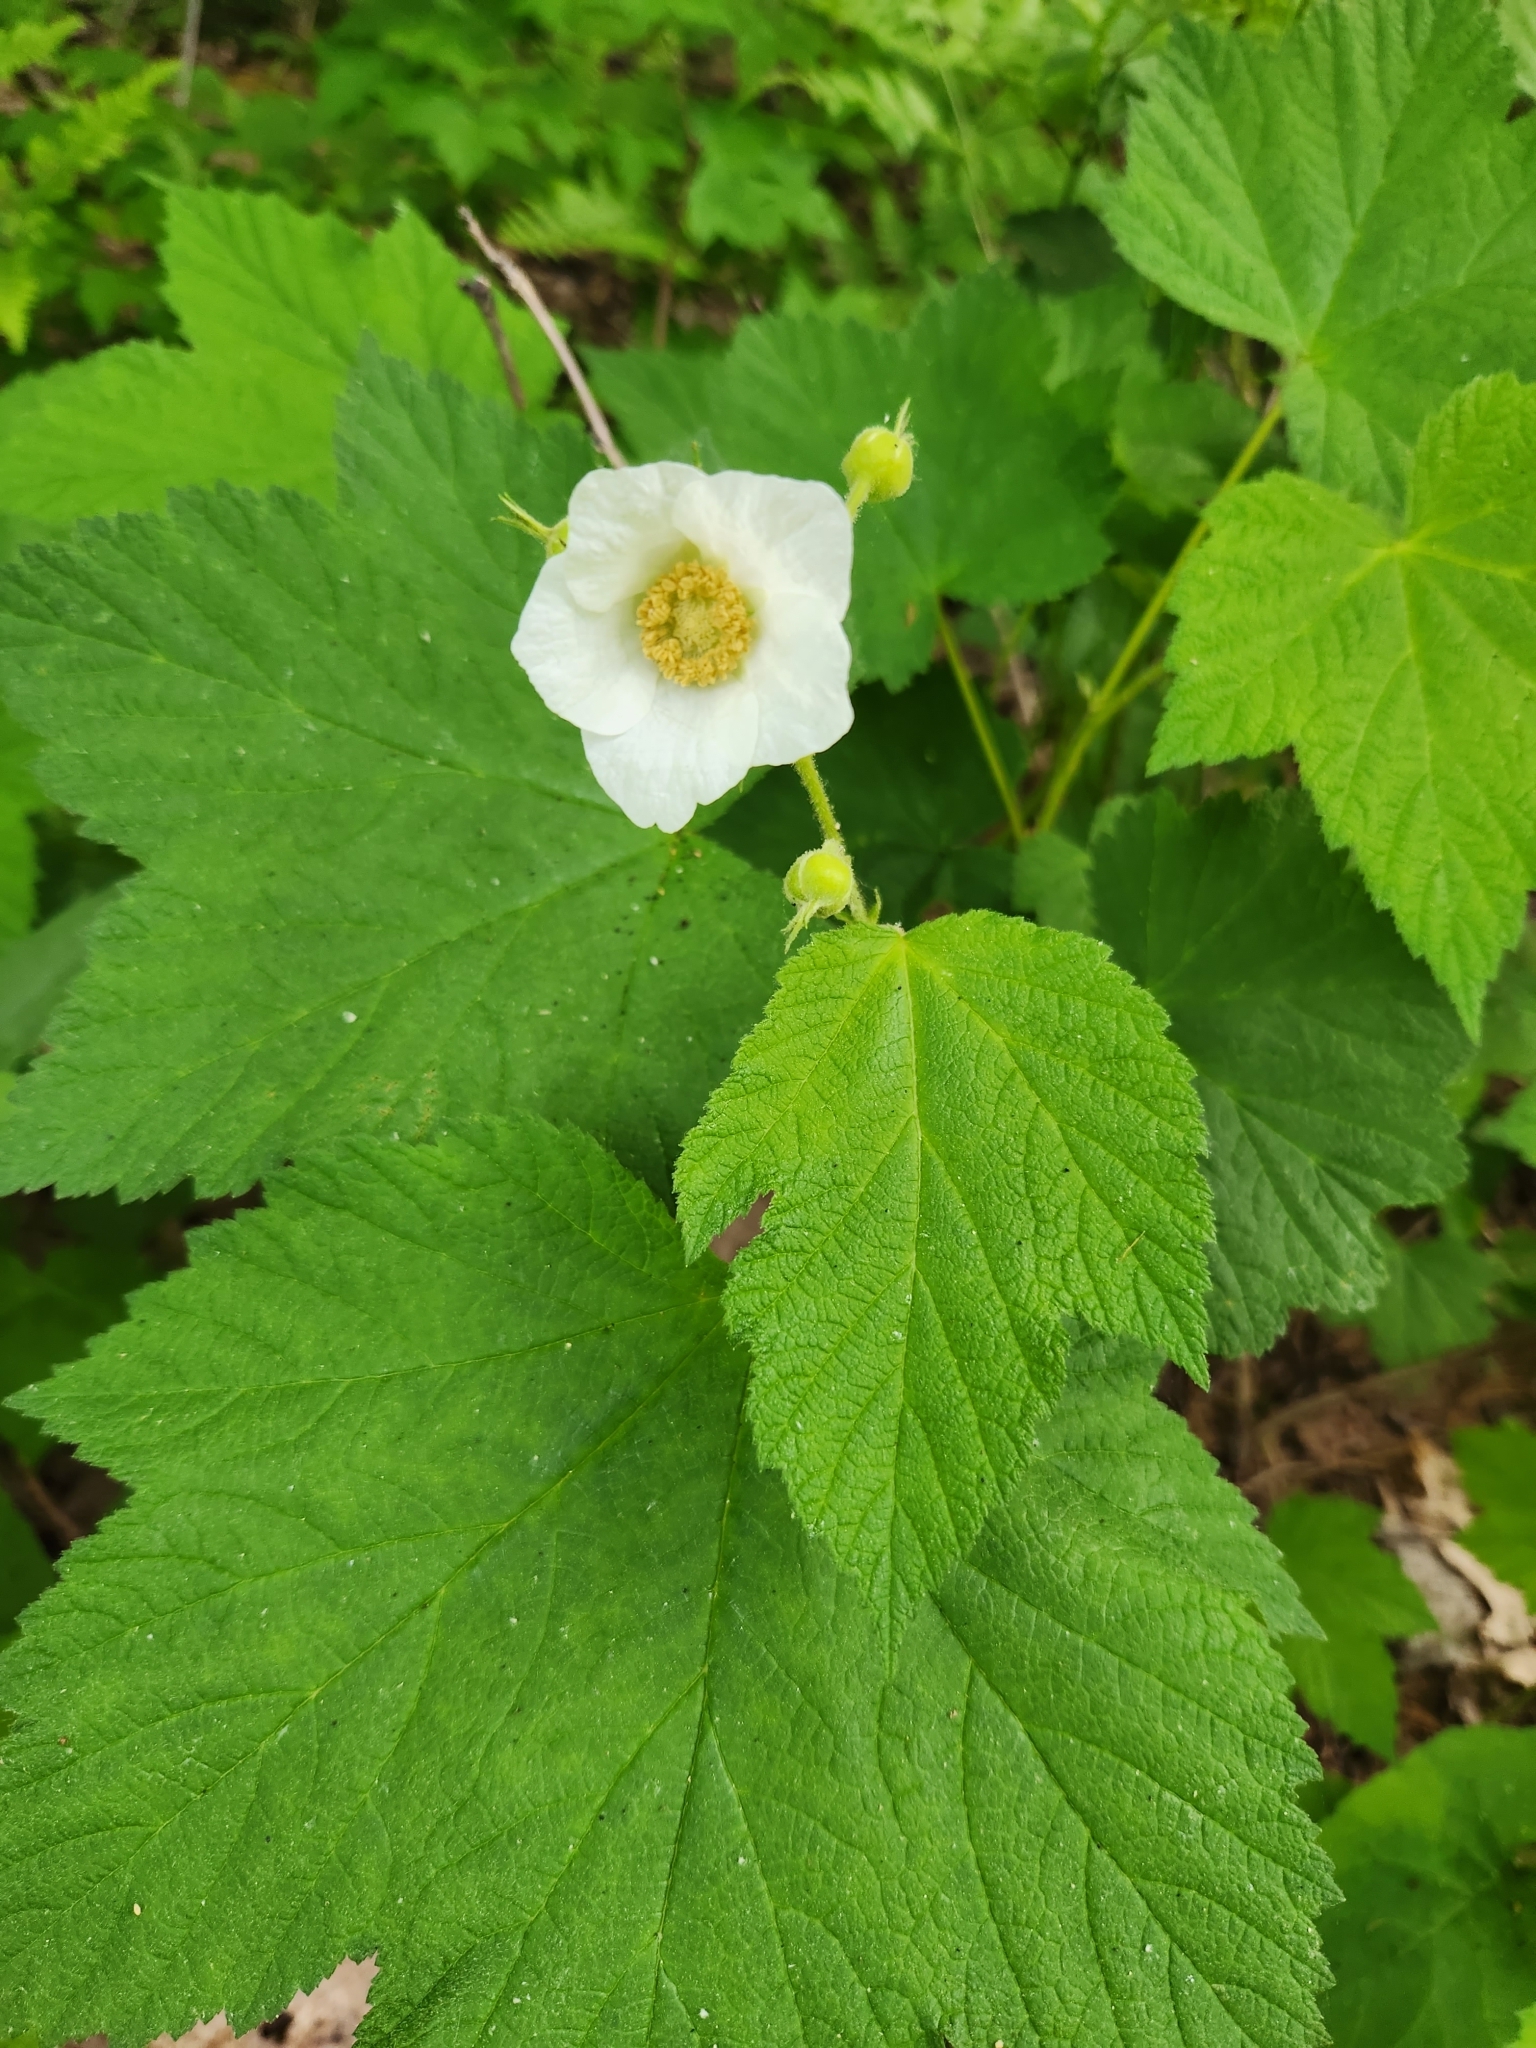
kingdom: Plantae
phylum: Tracheophyta
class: Magnoliopsida
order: Rosales
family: Rosaceae
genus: Rubus
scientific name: Rubus parviflorus
